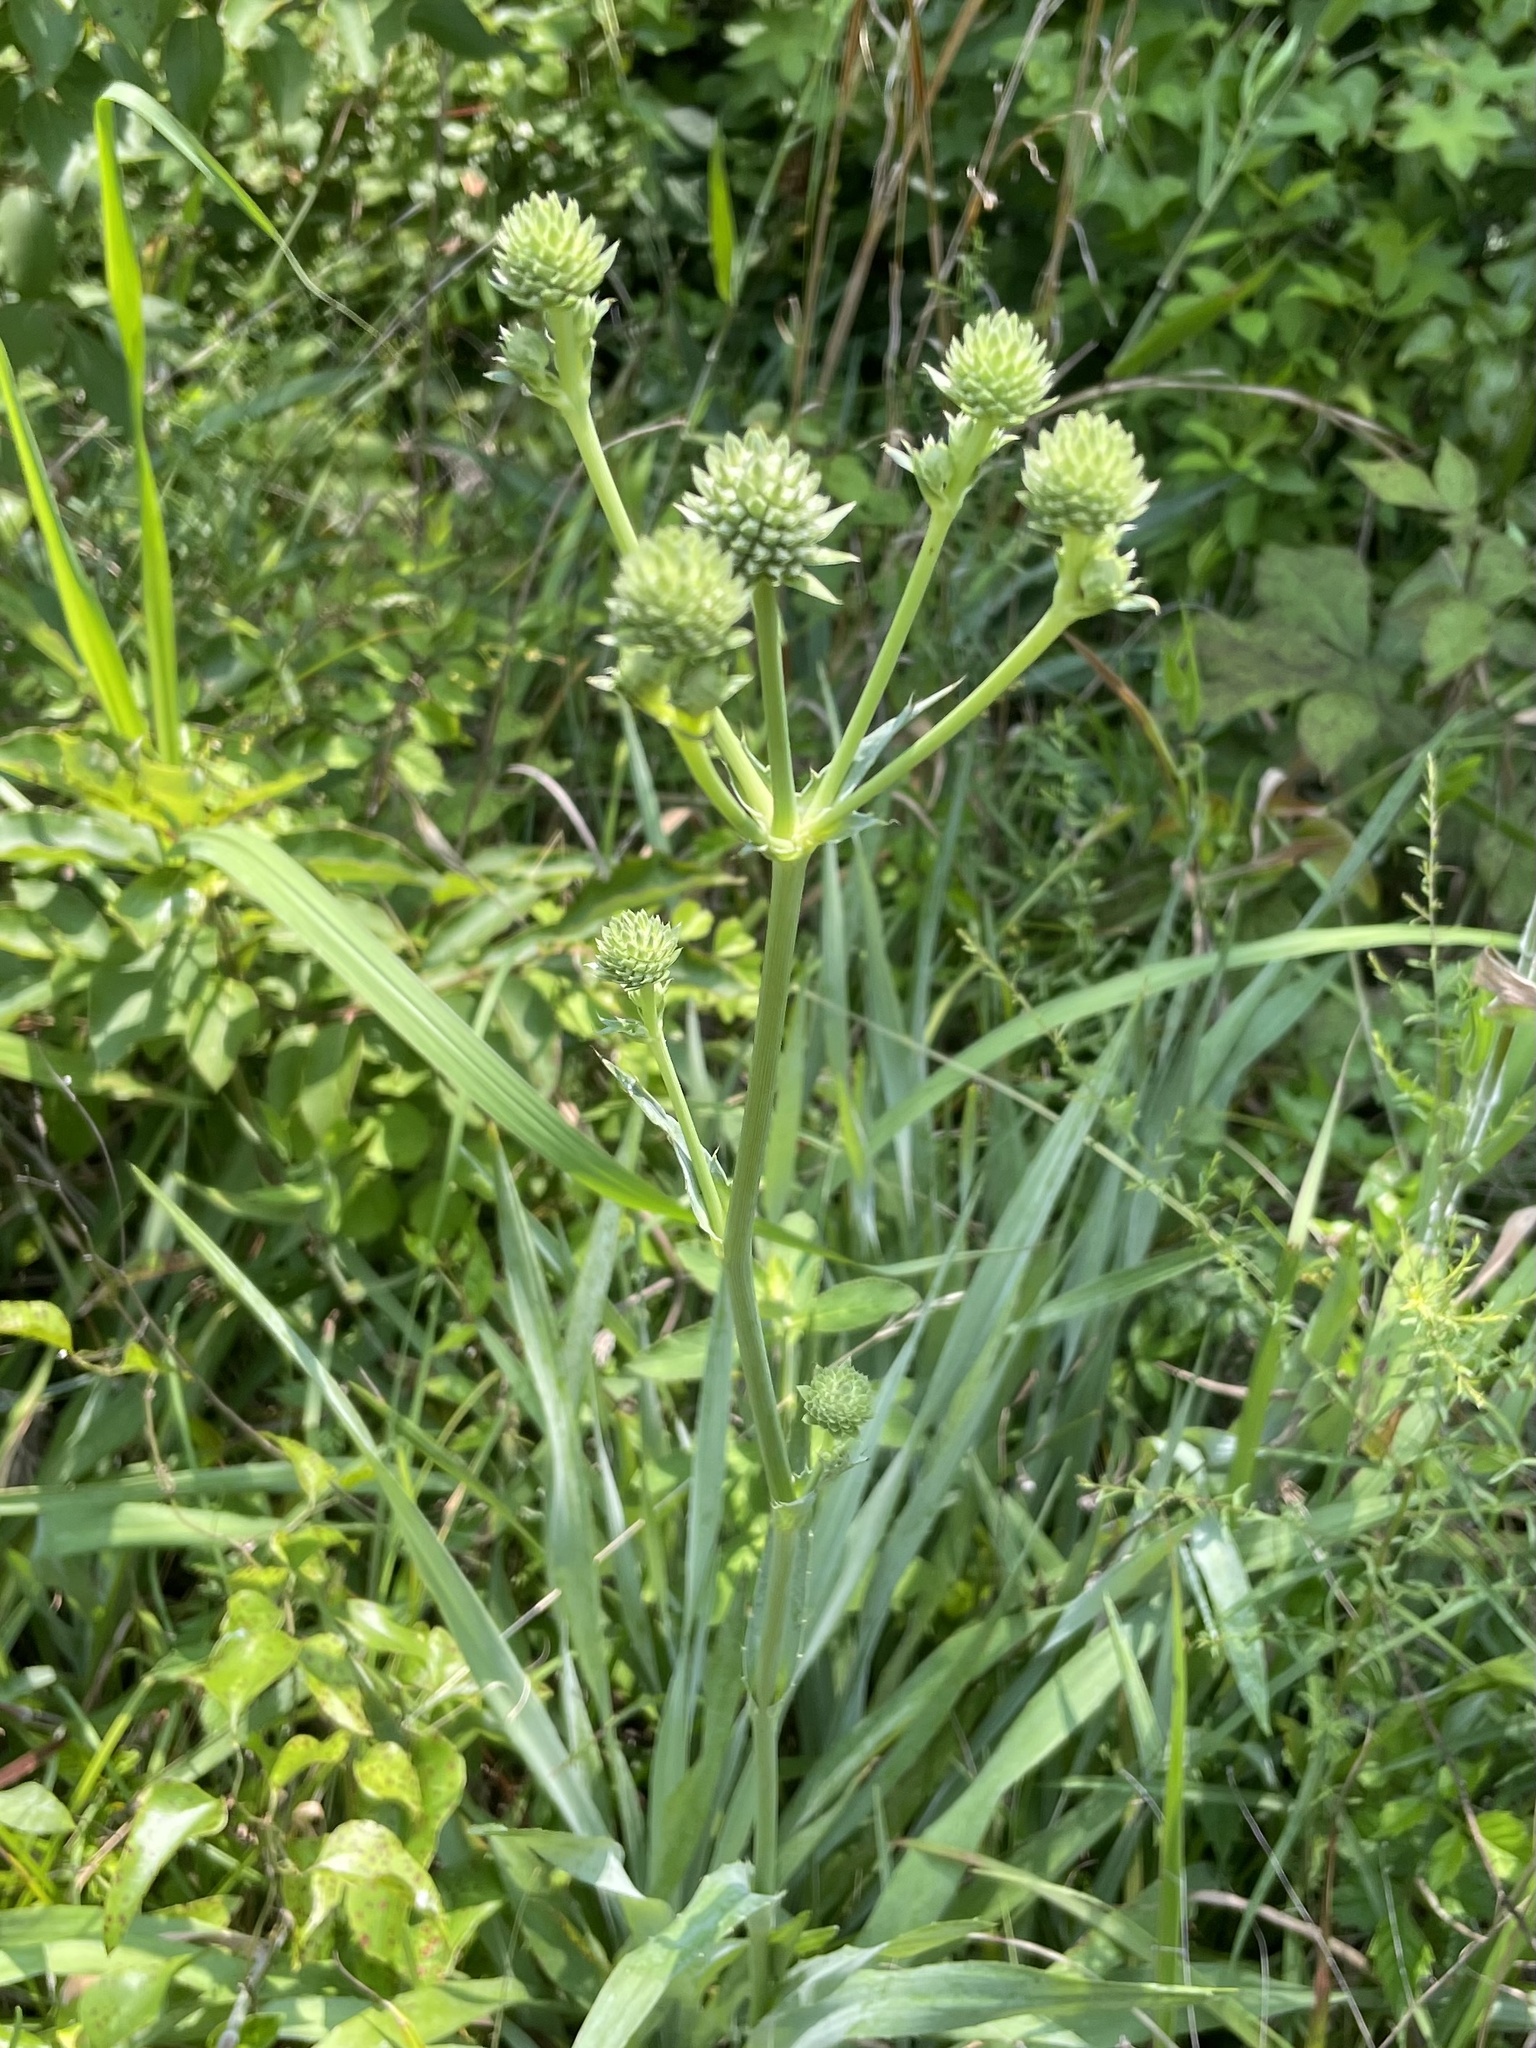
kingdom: Plantae
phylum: Tracheophyta
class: Magnoliopsida
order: Apiales
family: Apiaceae
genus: Eryngium
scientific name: Eryngium yuccifolium
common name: Button eryngo
